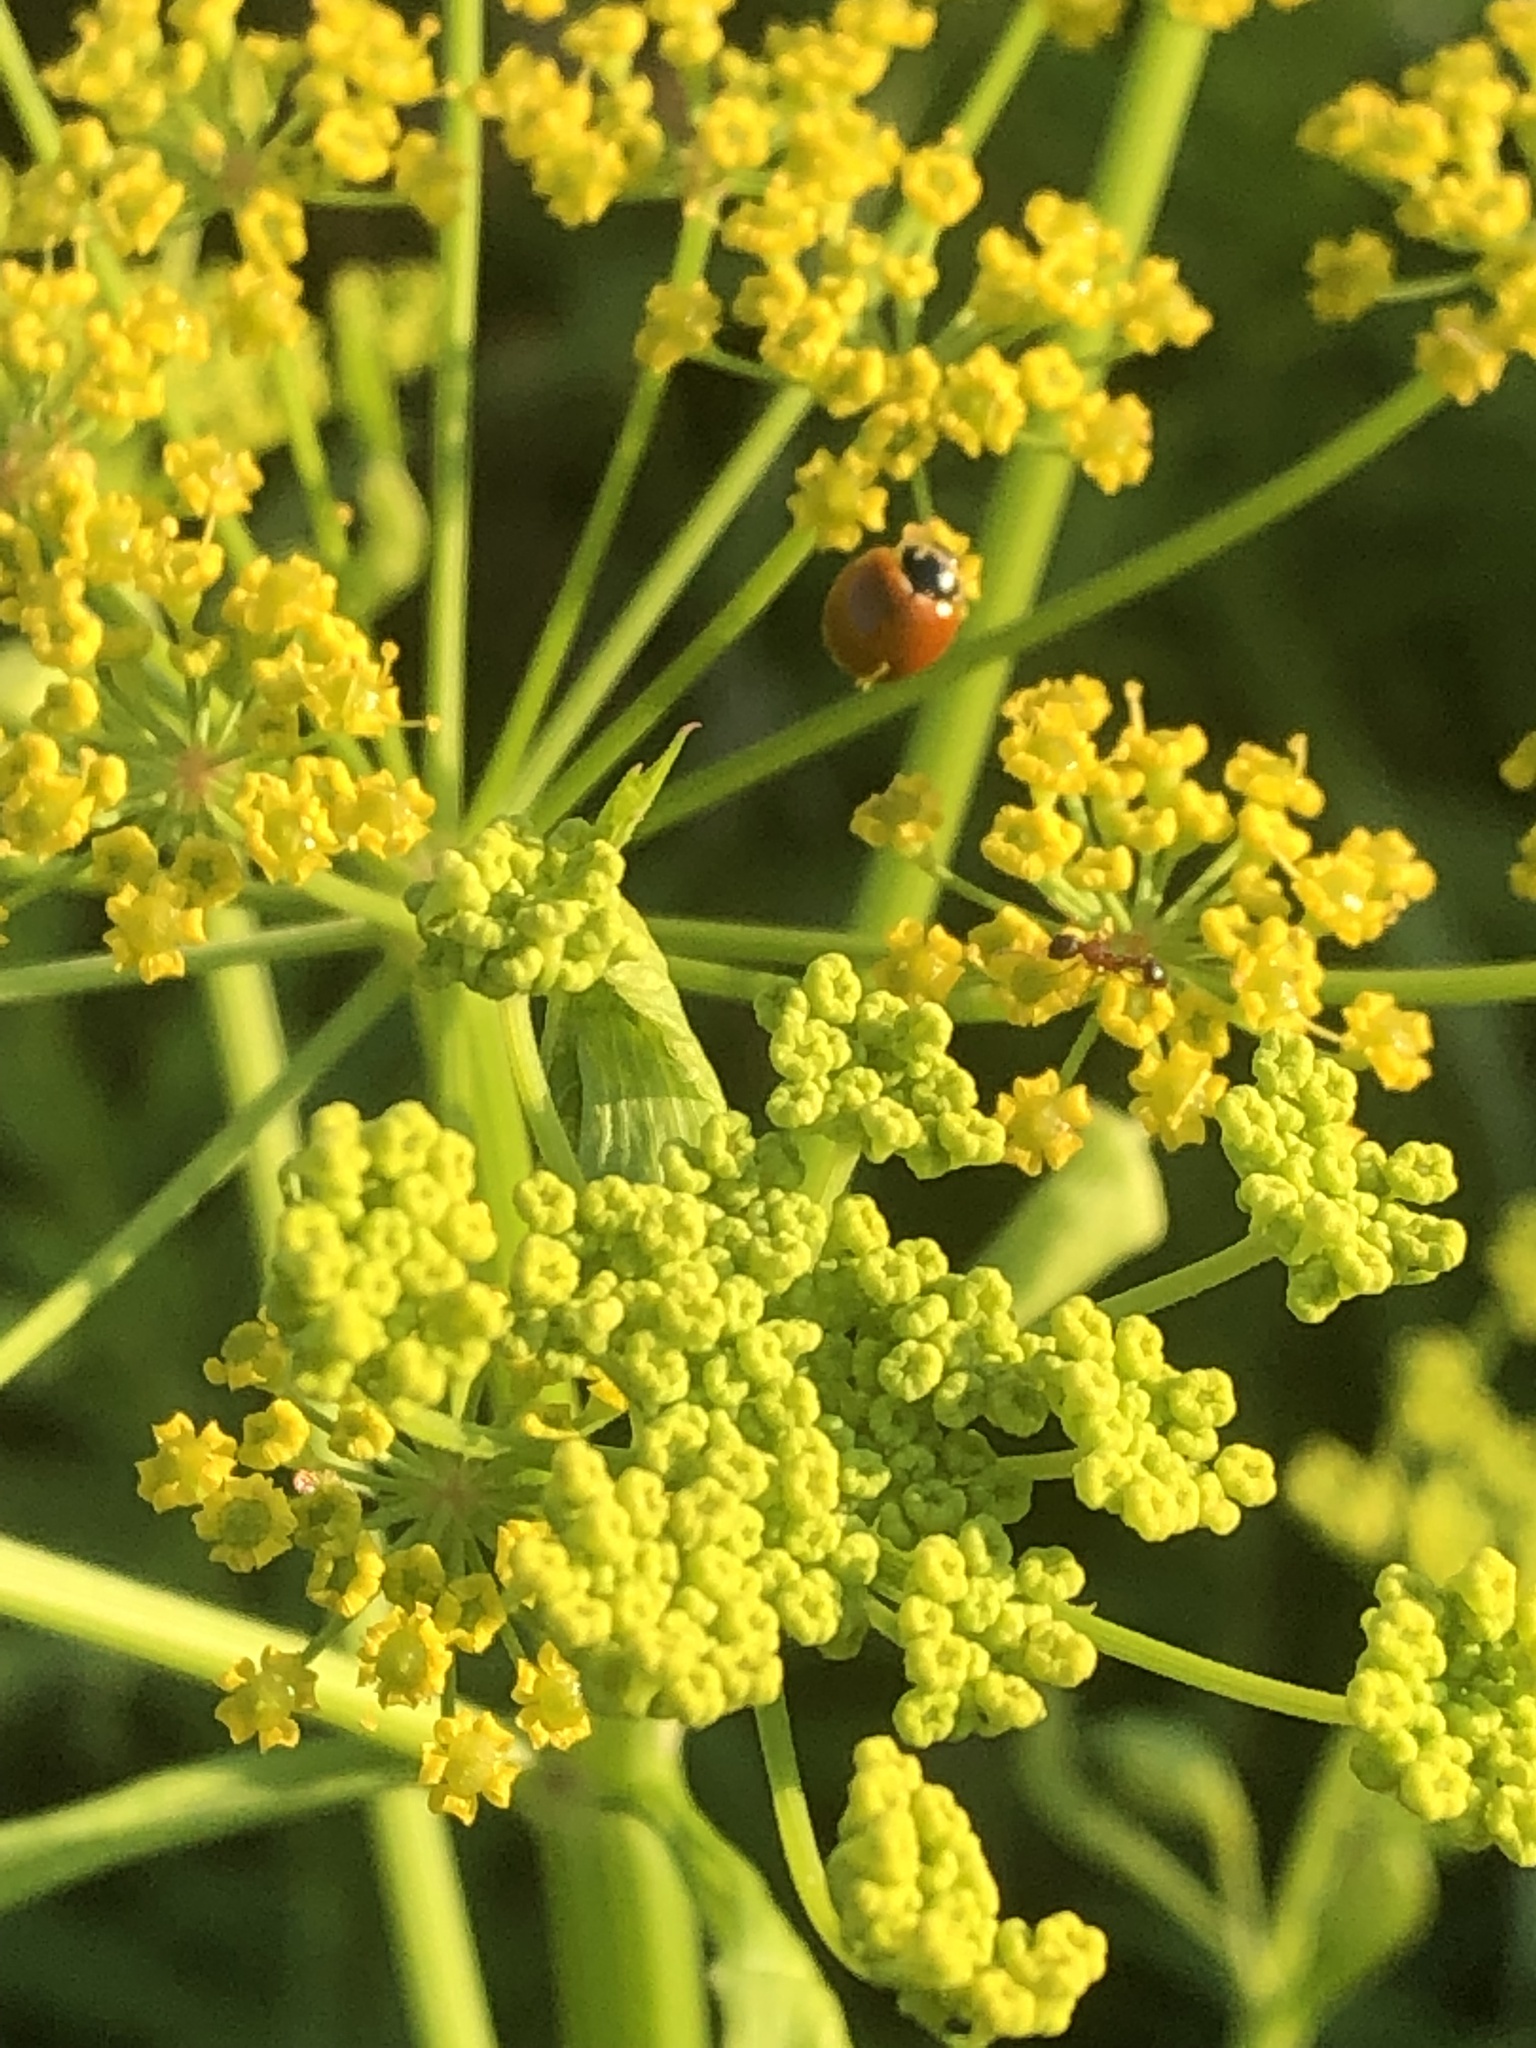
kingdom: Animalia
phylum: Arthropoda
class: Insecta
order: Coleoptera
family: Coccinellidae
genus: Cycloneda
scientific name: Cycloneda munda
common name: Polished lady beetle
